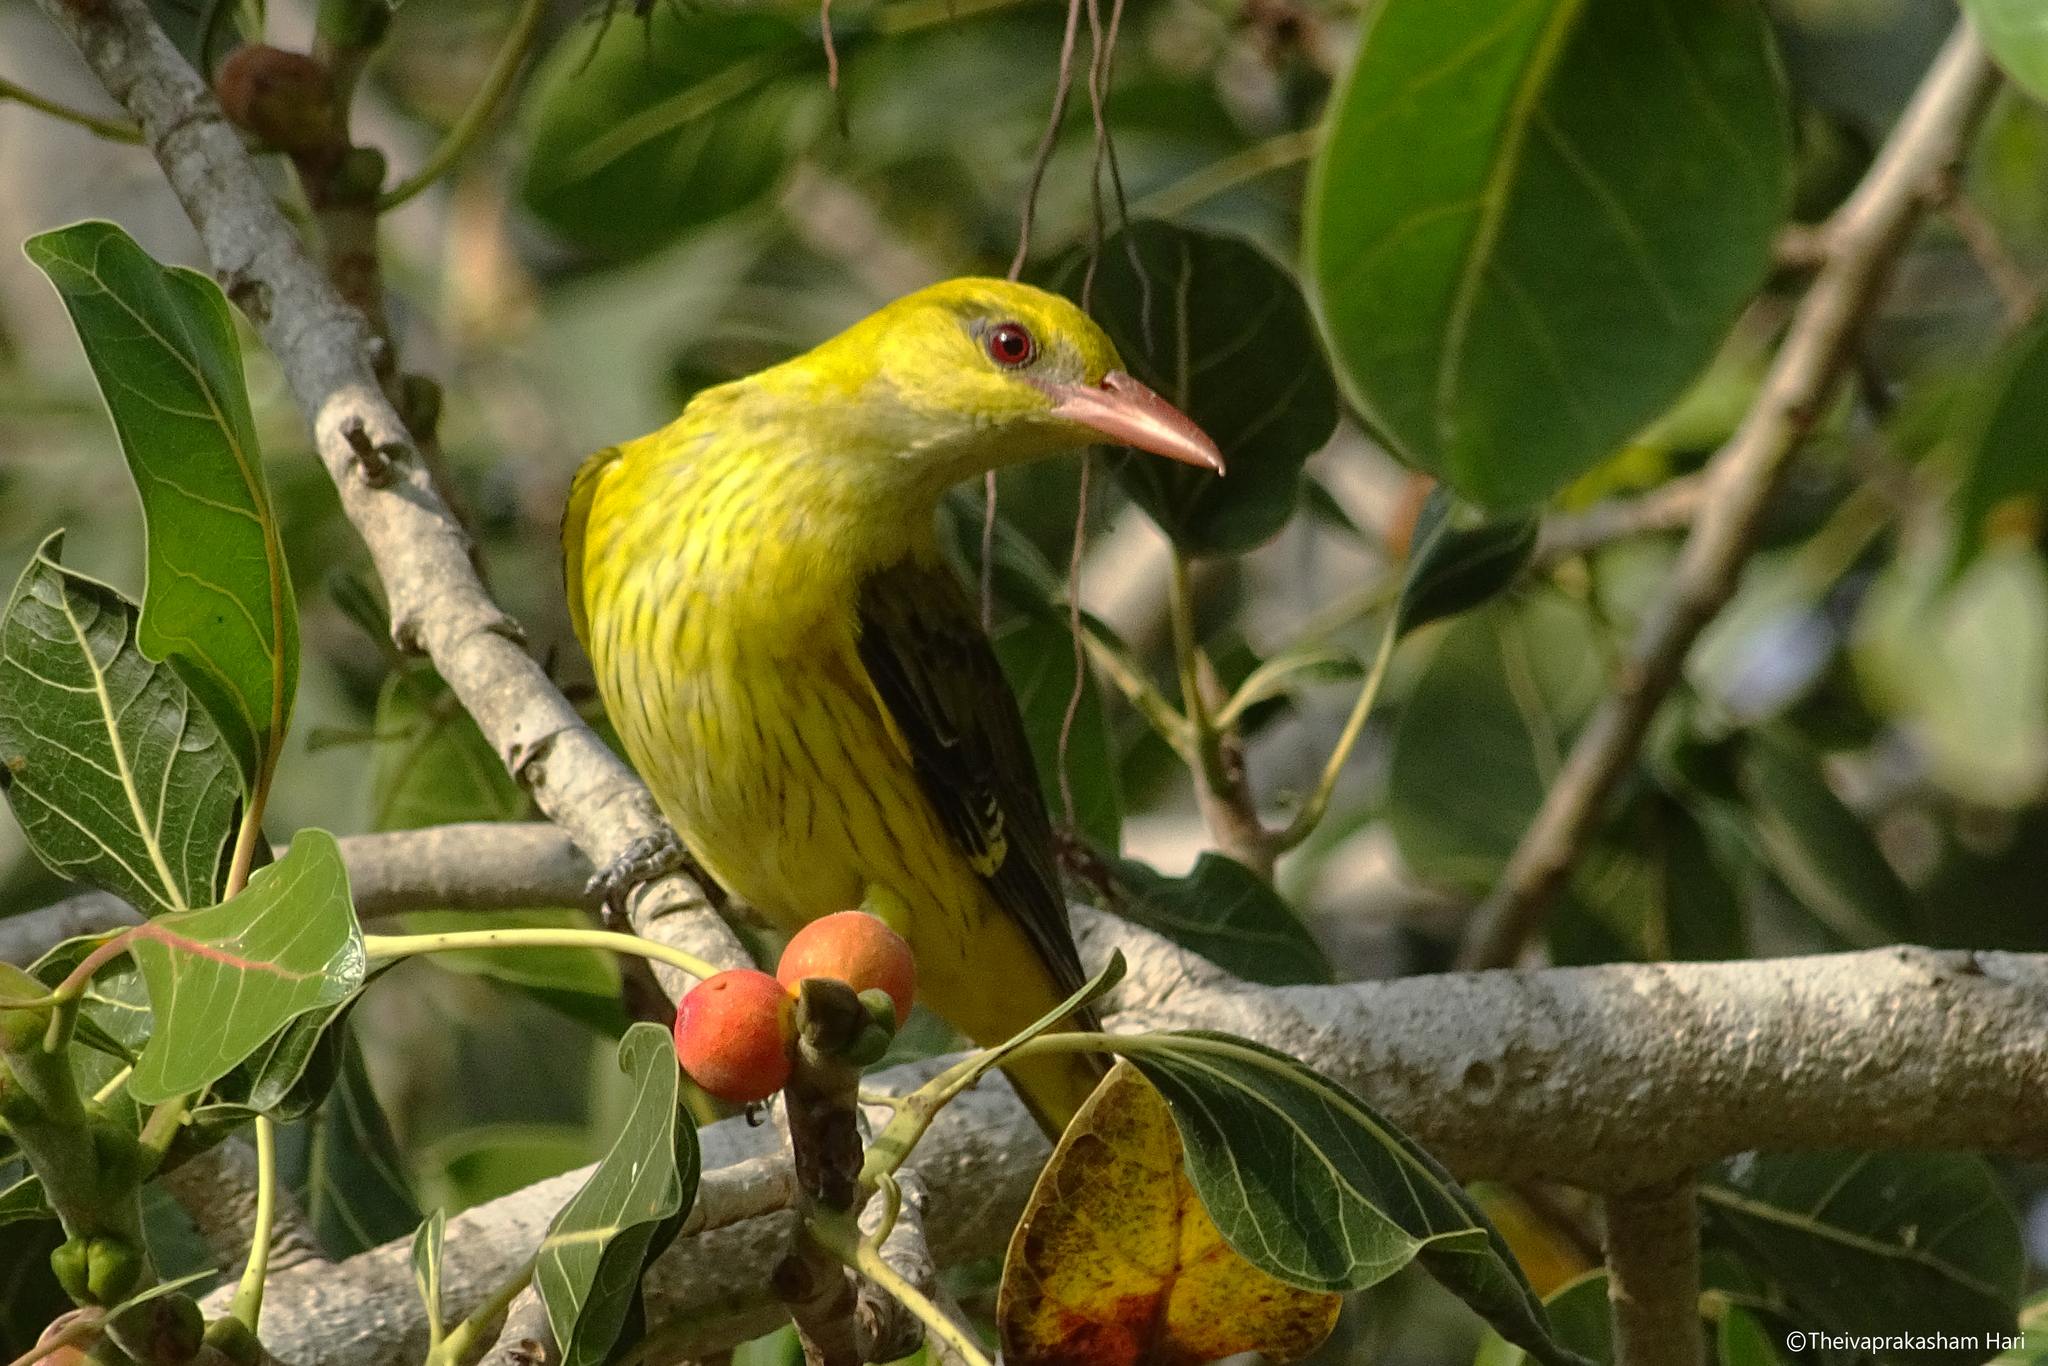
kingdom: Animalia
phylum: Chordata
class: Aves
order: Passeriformes
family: Oriolidae
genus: Oriolus
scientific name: Oriolus kundoo
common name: Indian golden oriole
